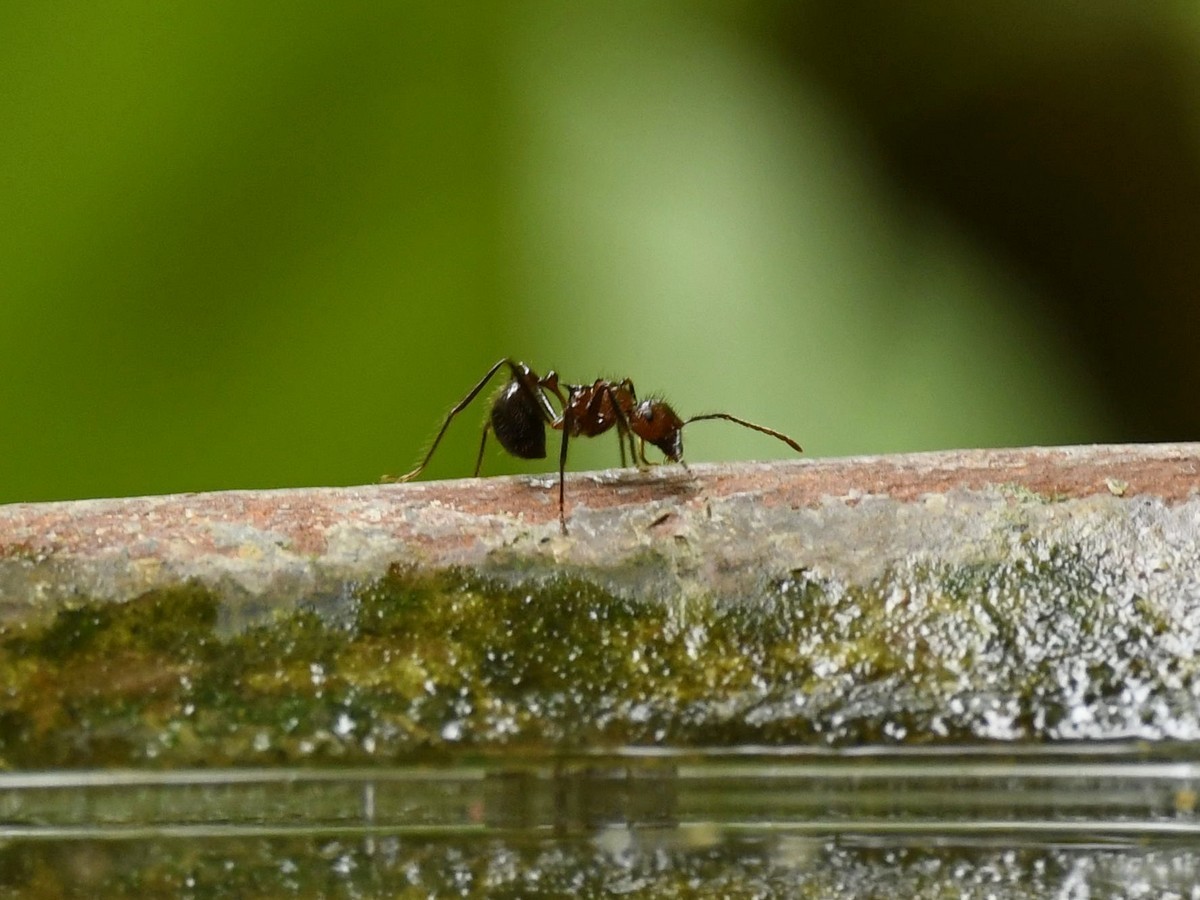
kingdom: Animalia
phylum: Arthropoda
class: Insecta
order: Hymenoptera
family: Formicidae
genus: Myrmicaria
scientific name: Myrmicaria brunnea
